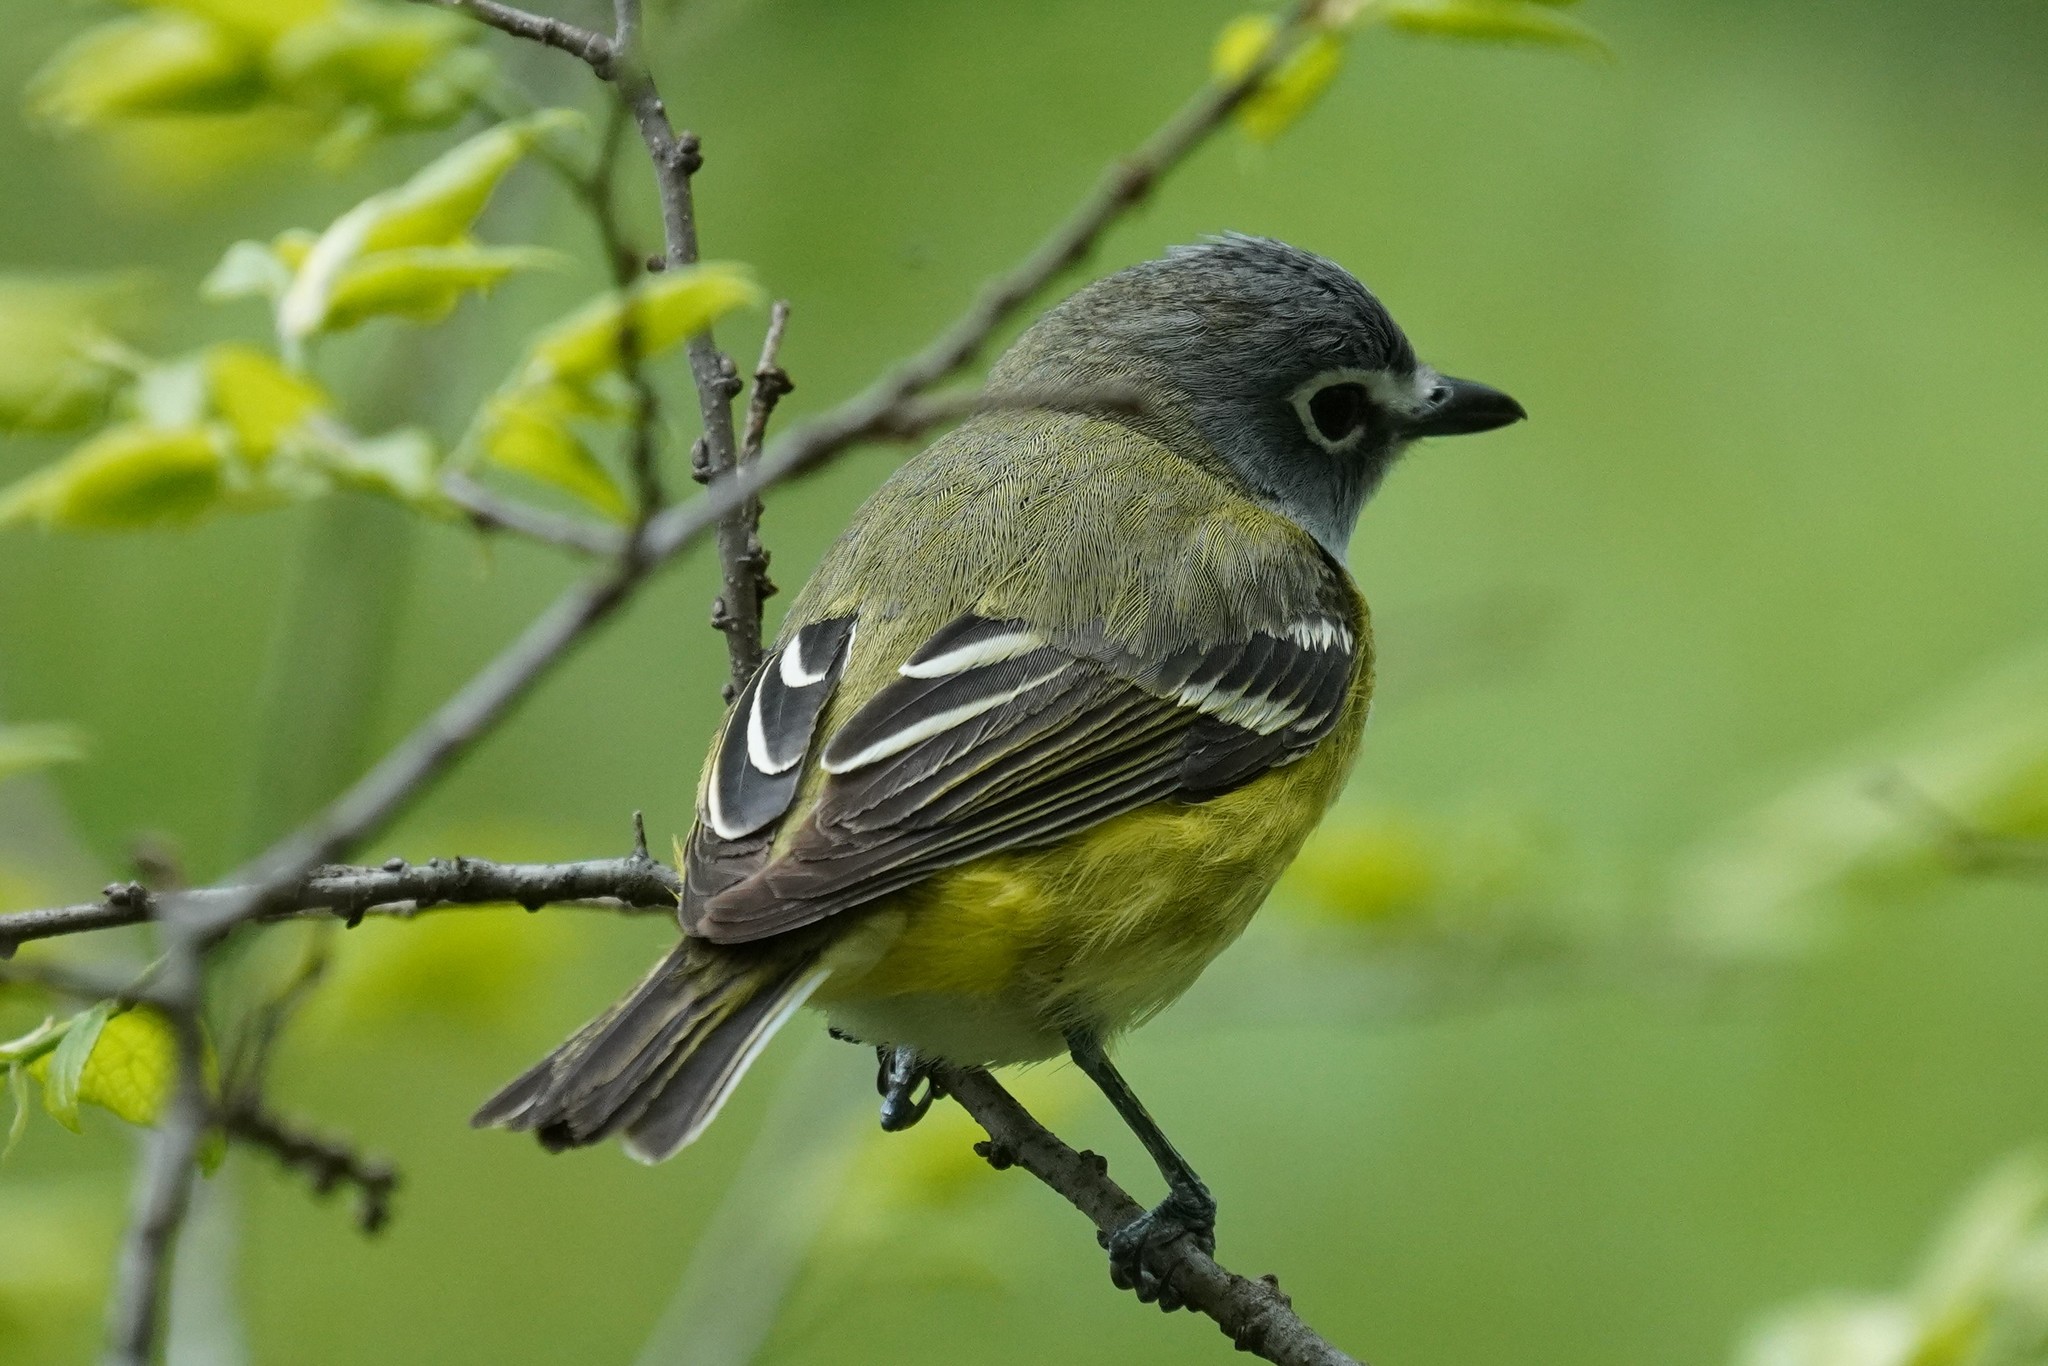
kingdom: Animalia
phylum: Chordata
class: Aves
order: Passeriformes
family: Vireonidae
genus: Vireo
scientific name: Vireo solitarius
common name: Blue-headed vireo
